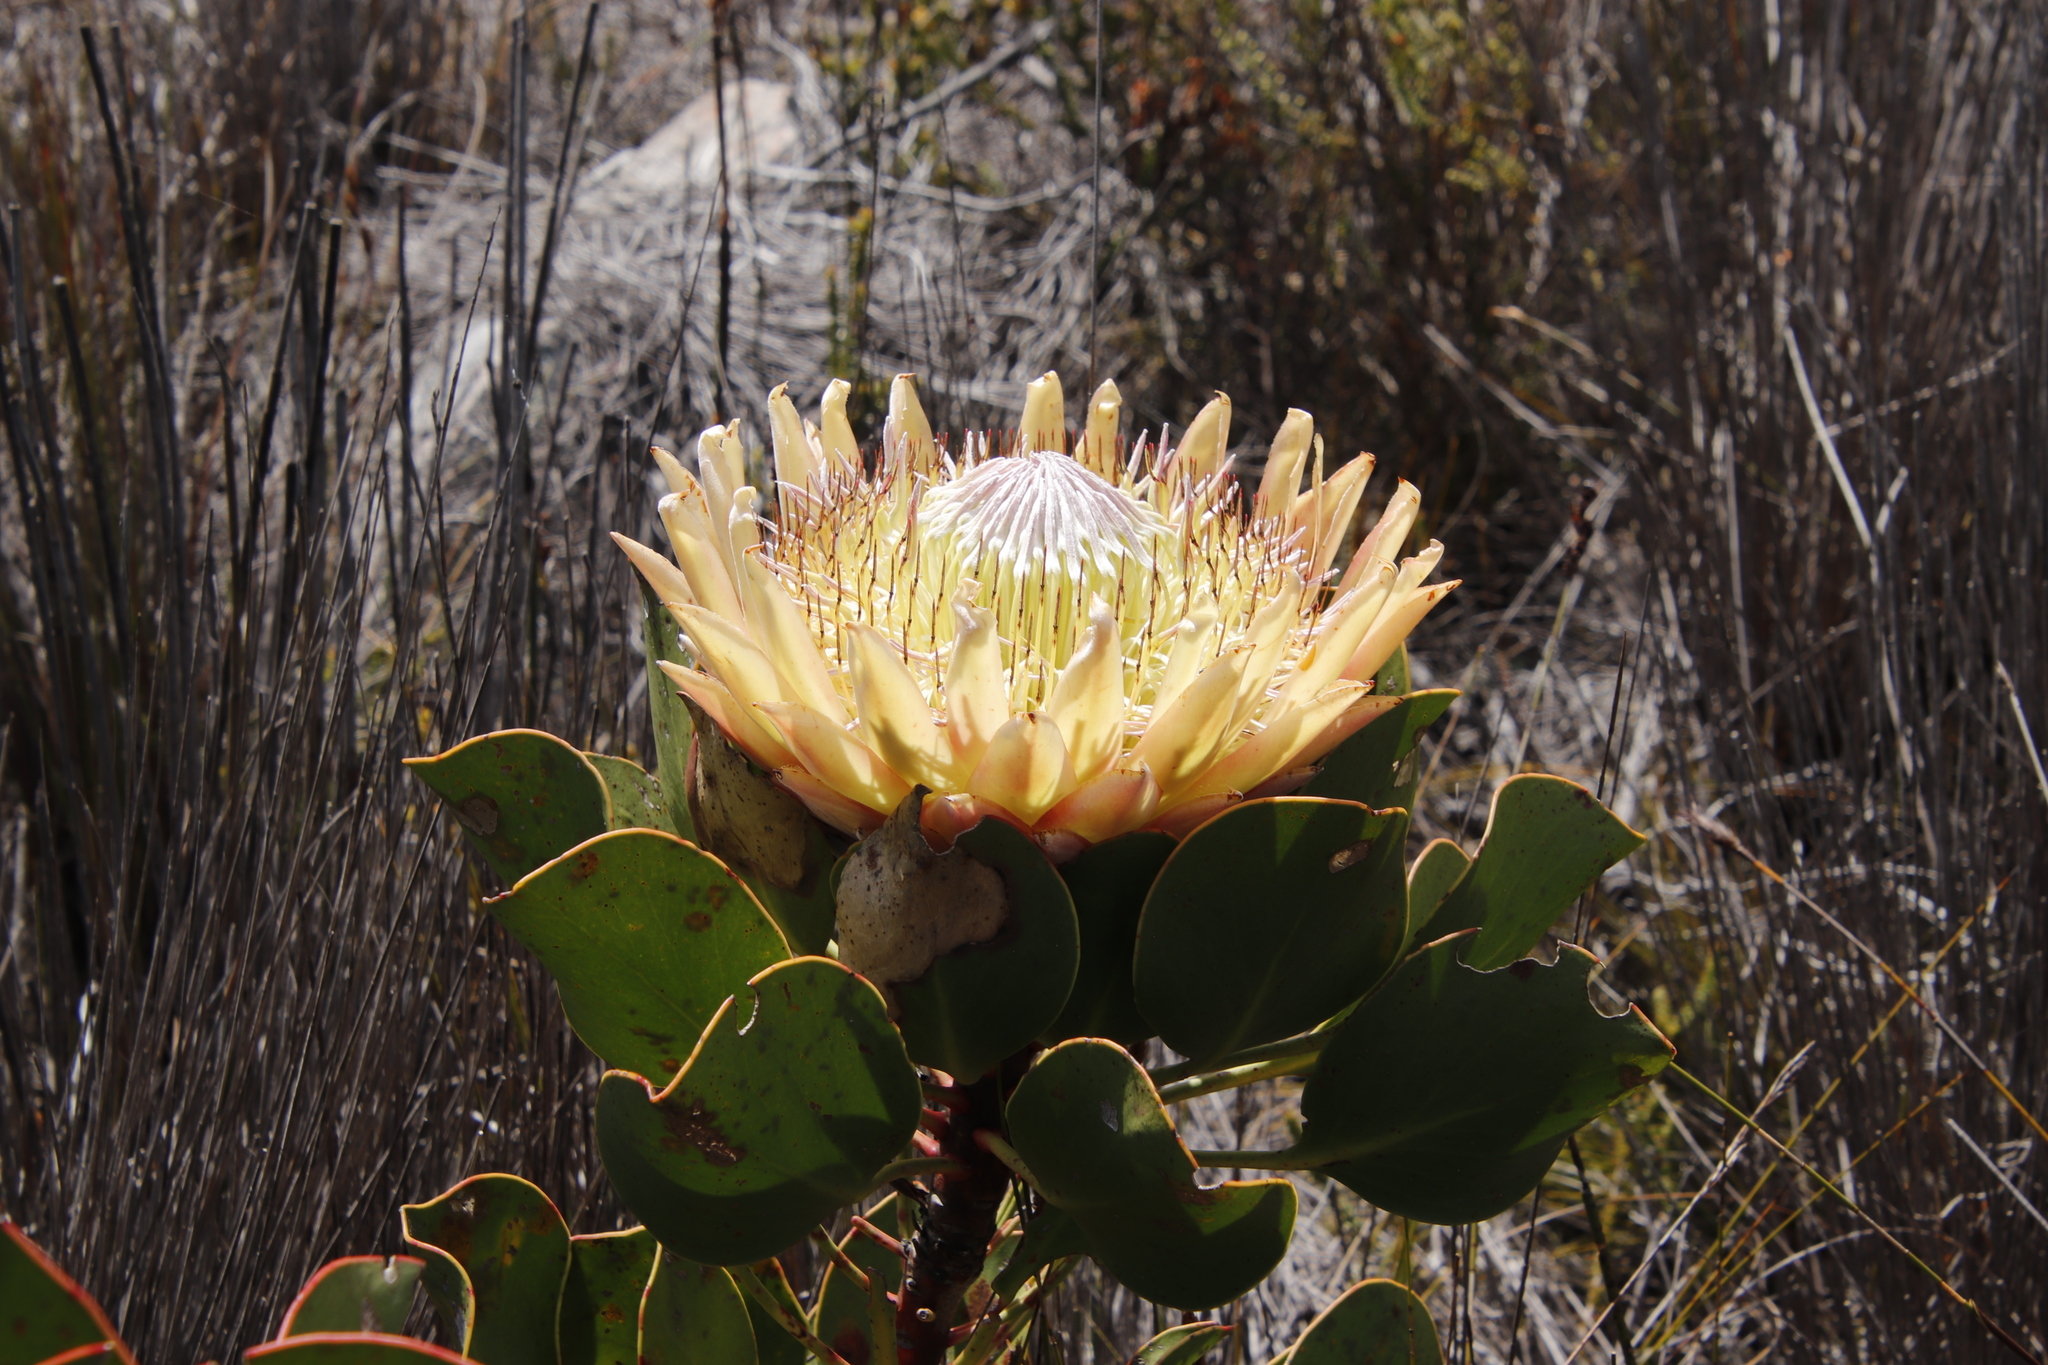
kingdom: Plantae
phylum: Tracheophyta
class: Magnoliopsida
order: Proteales
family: Proteaceae
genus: Protea
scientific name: Protea cynaroides
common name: King protea
